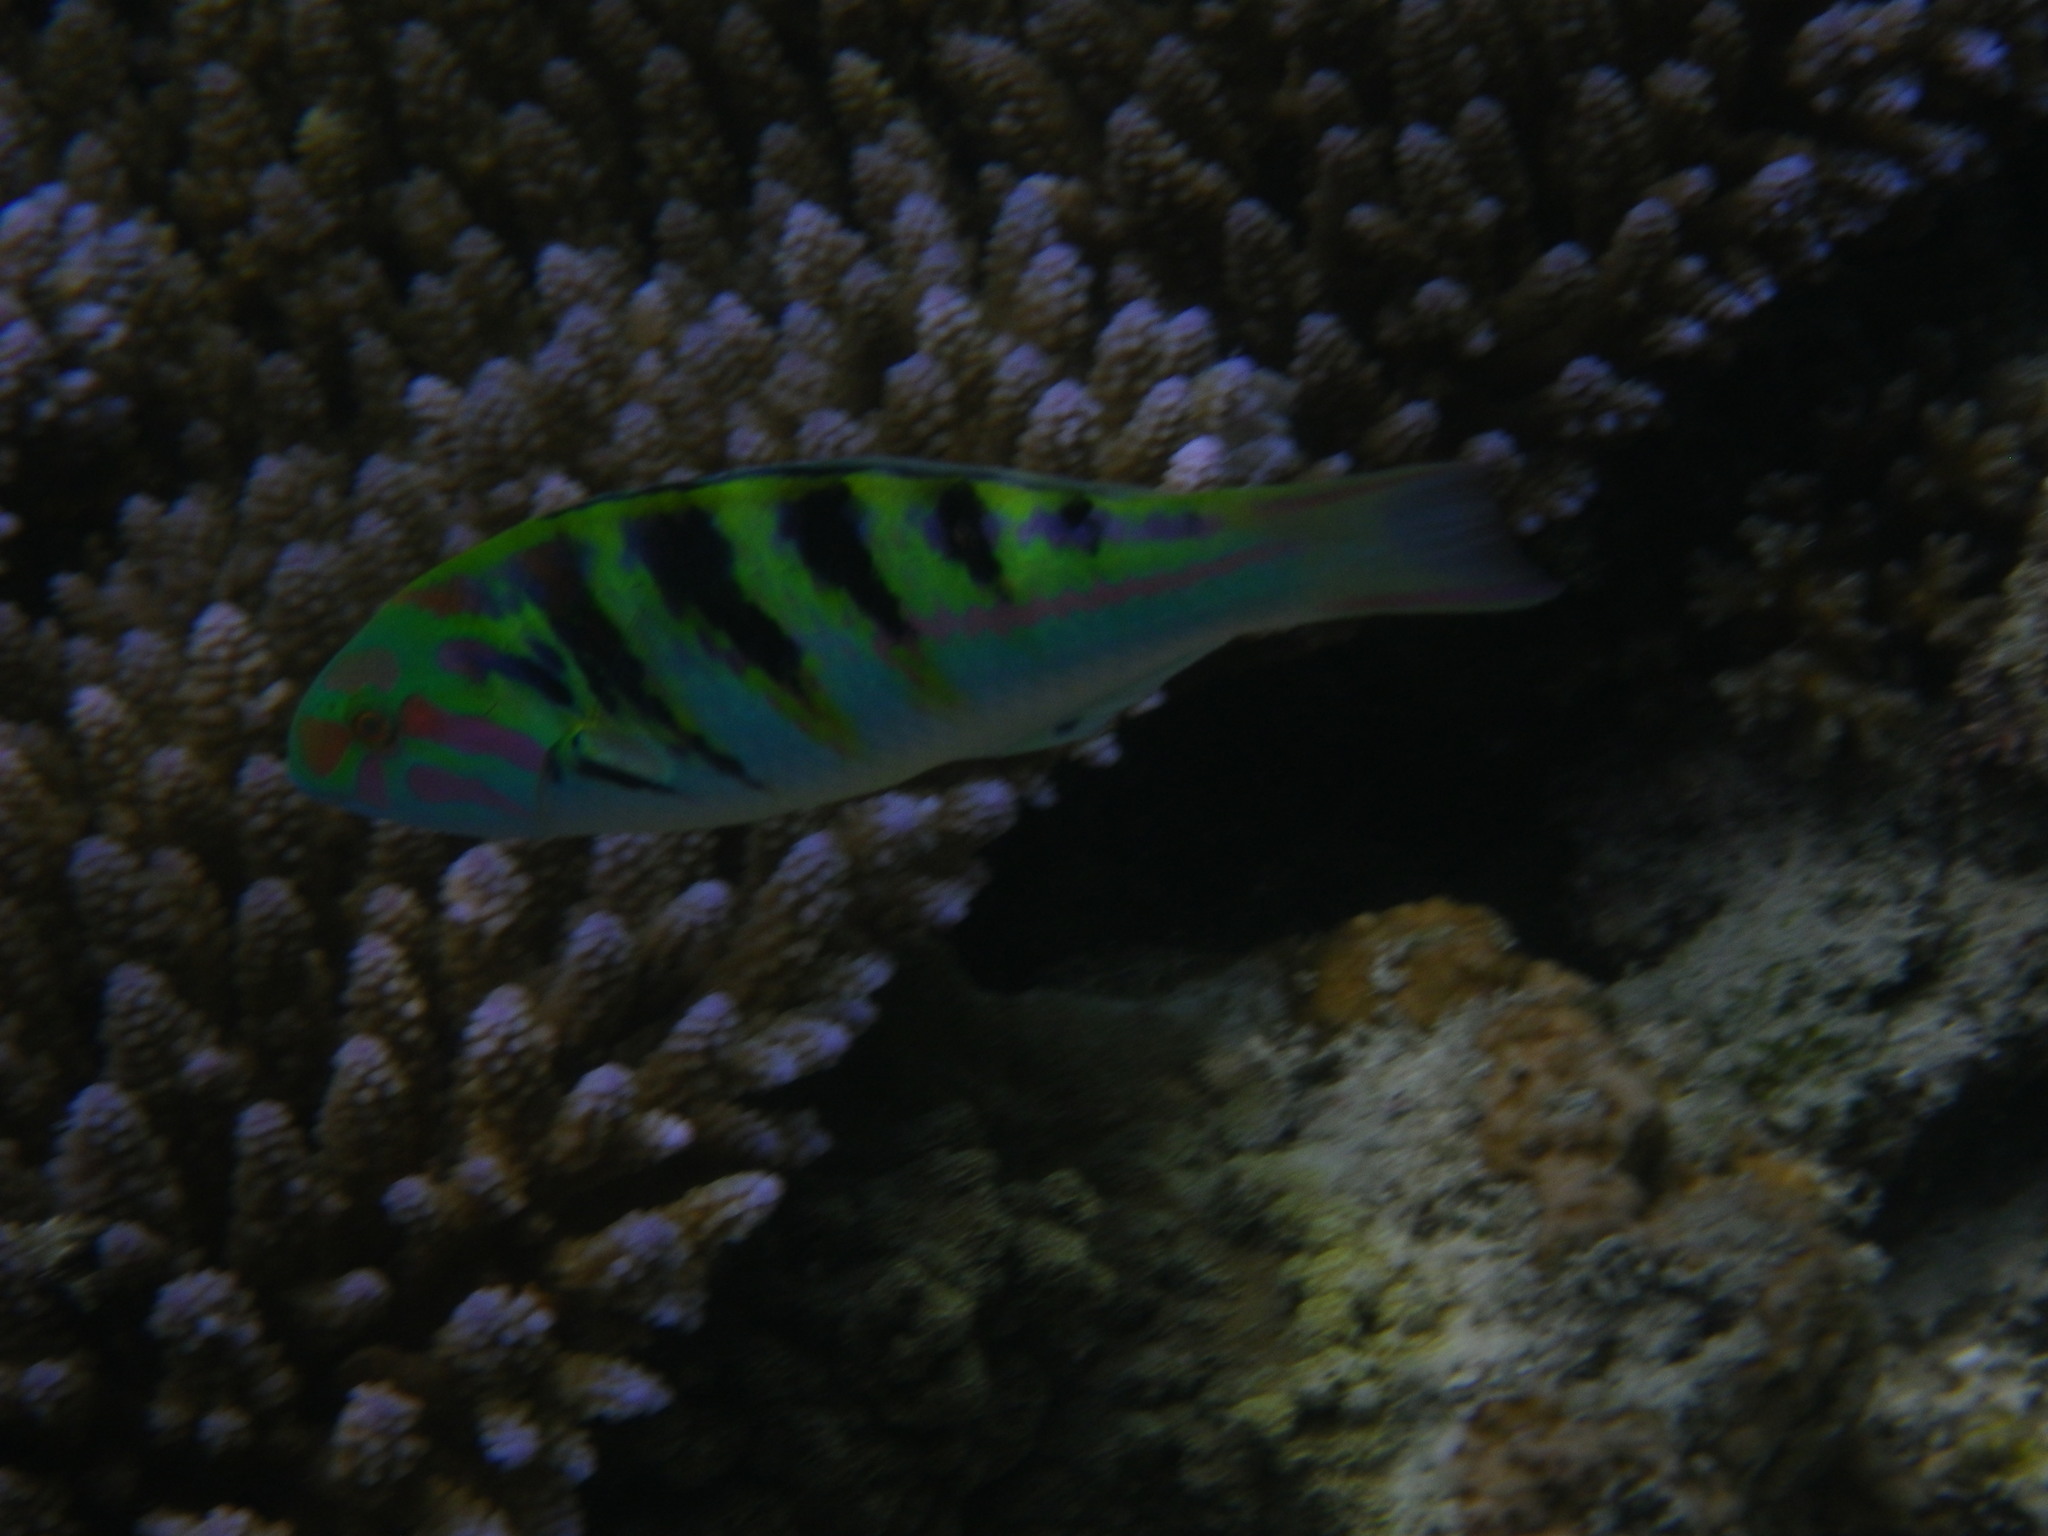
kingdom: Animalia
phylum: Chordata
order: Perciformes
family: Labridae
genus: Thalassoma
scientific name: Thalassoma hardwicke
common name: Sixbar wrasse
